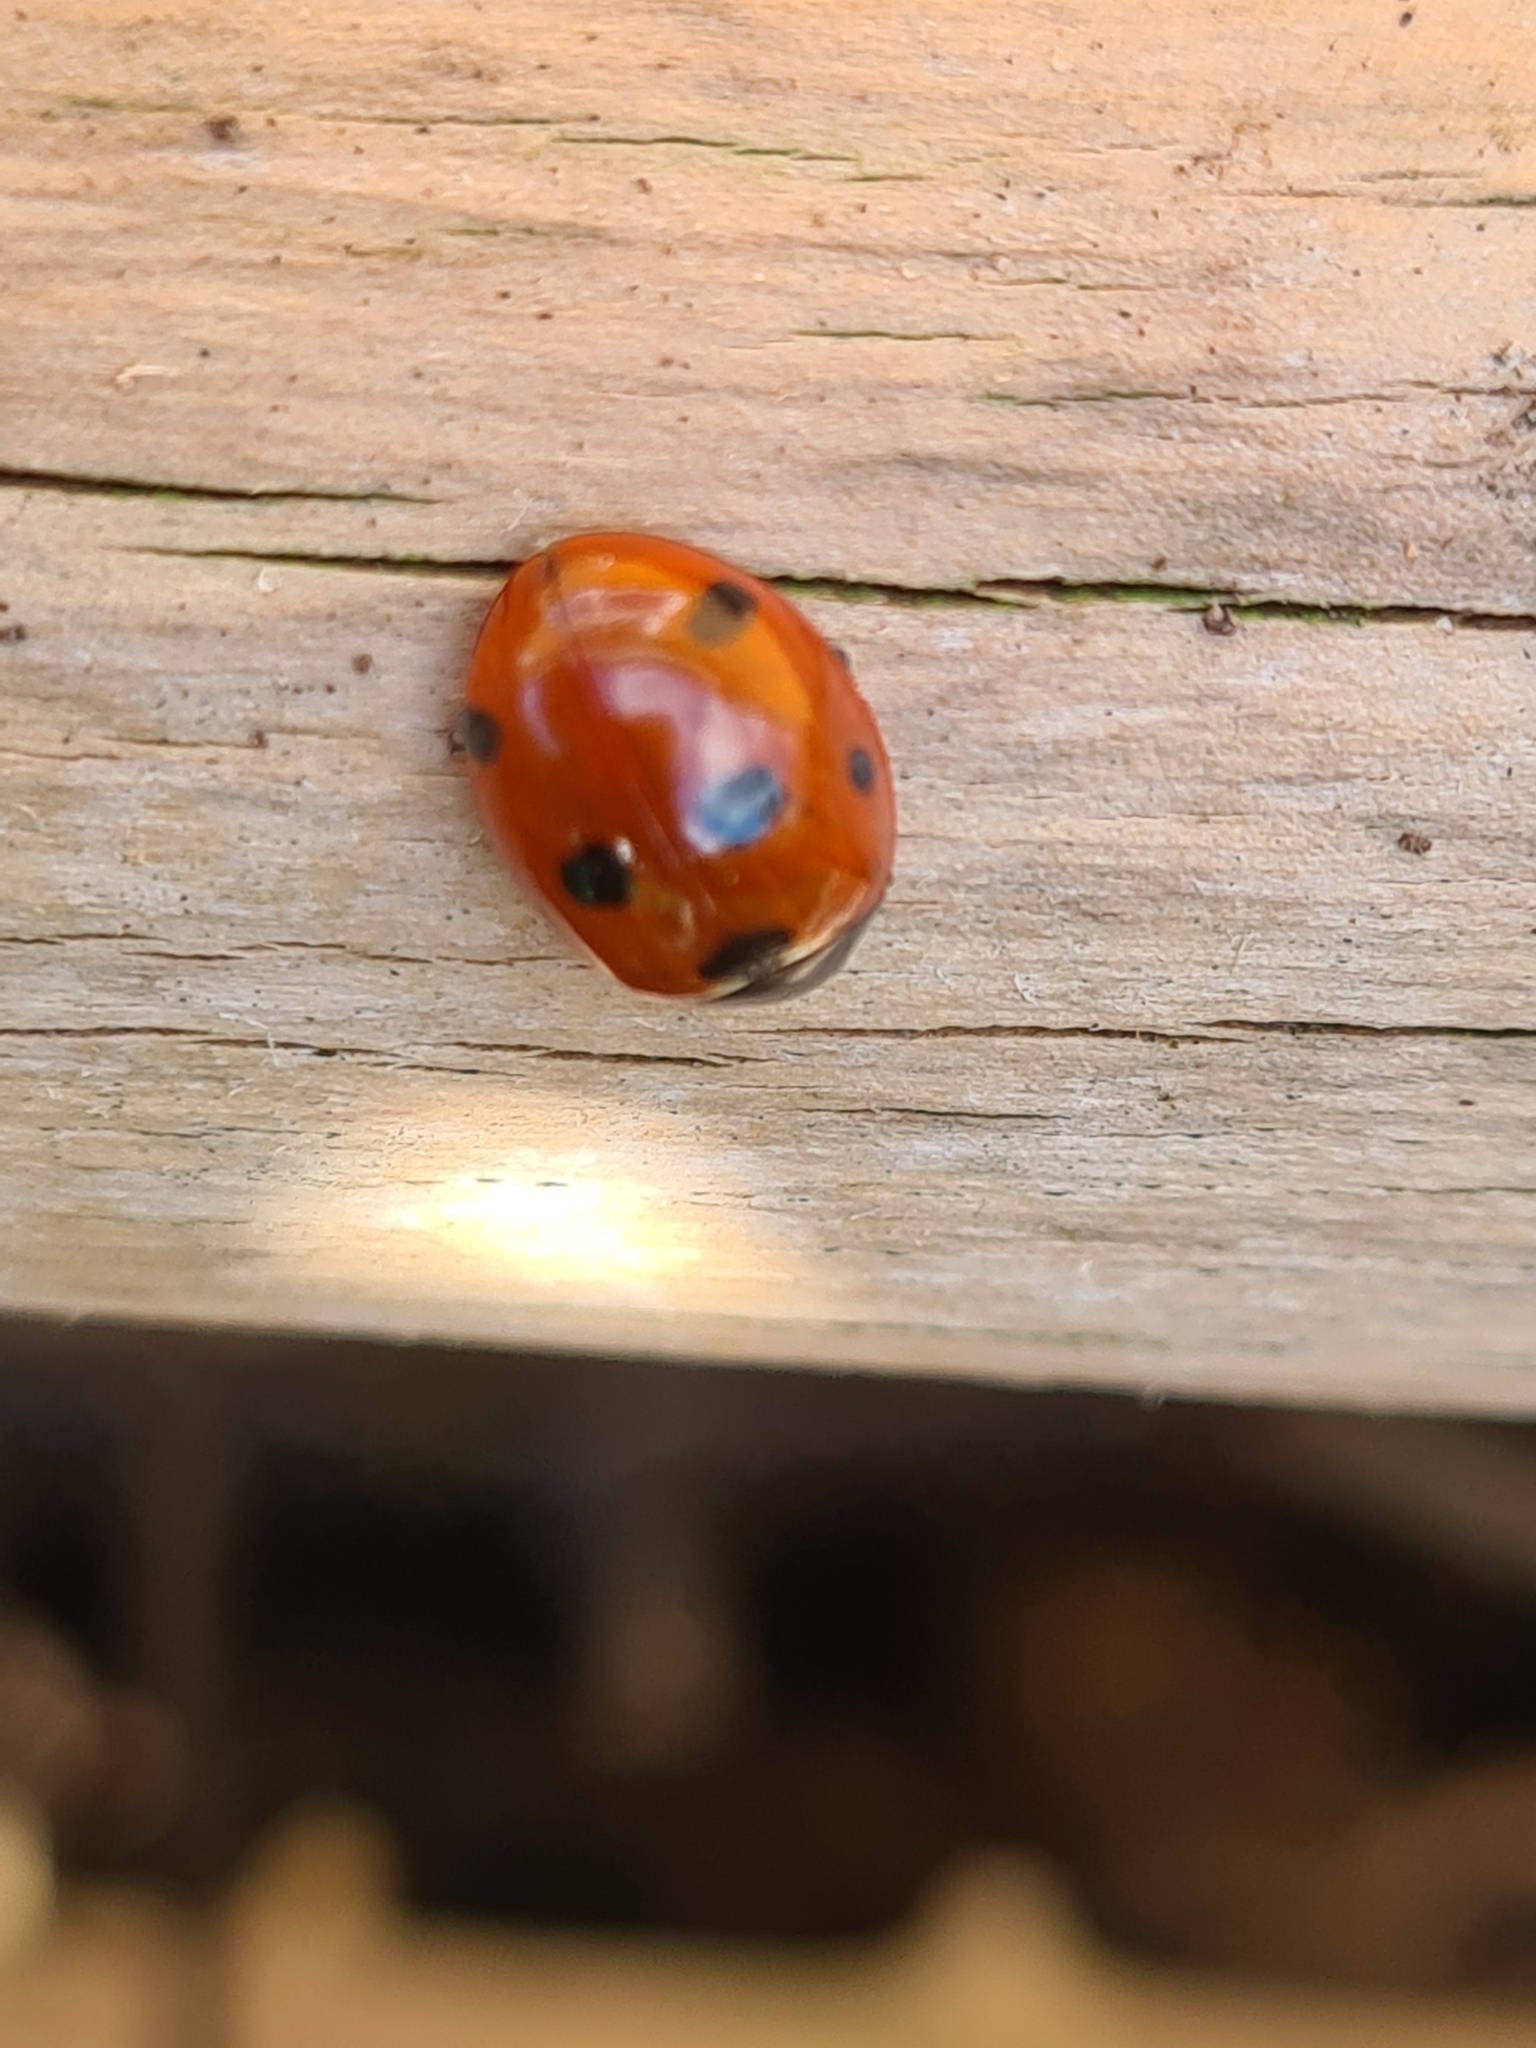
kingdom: Animalia
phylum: Arthropoda
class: Insecta
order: Coleoptera
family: Coccinellidae
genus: Coccinella
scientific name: Coccinella septempunctata
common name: Sevenspotted lady beetle
